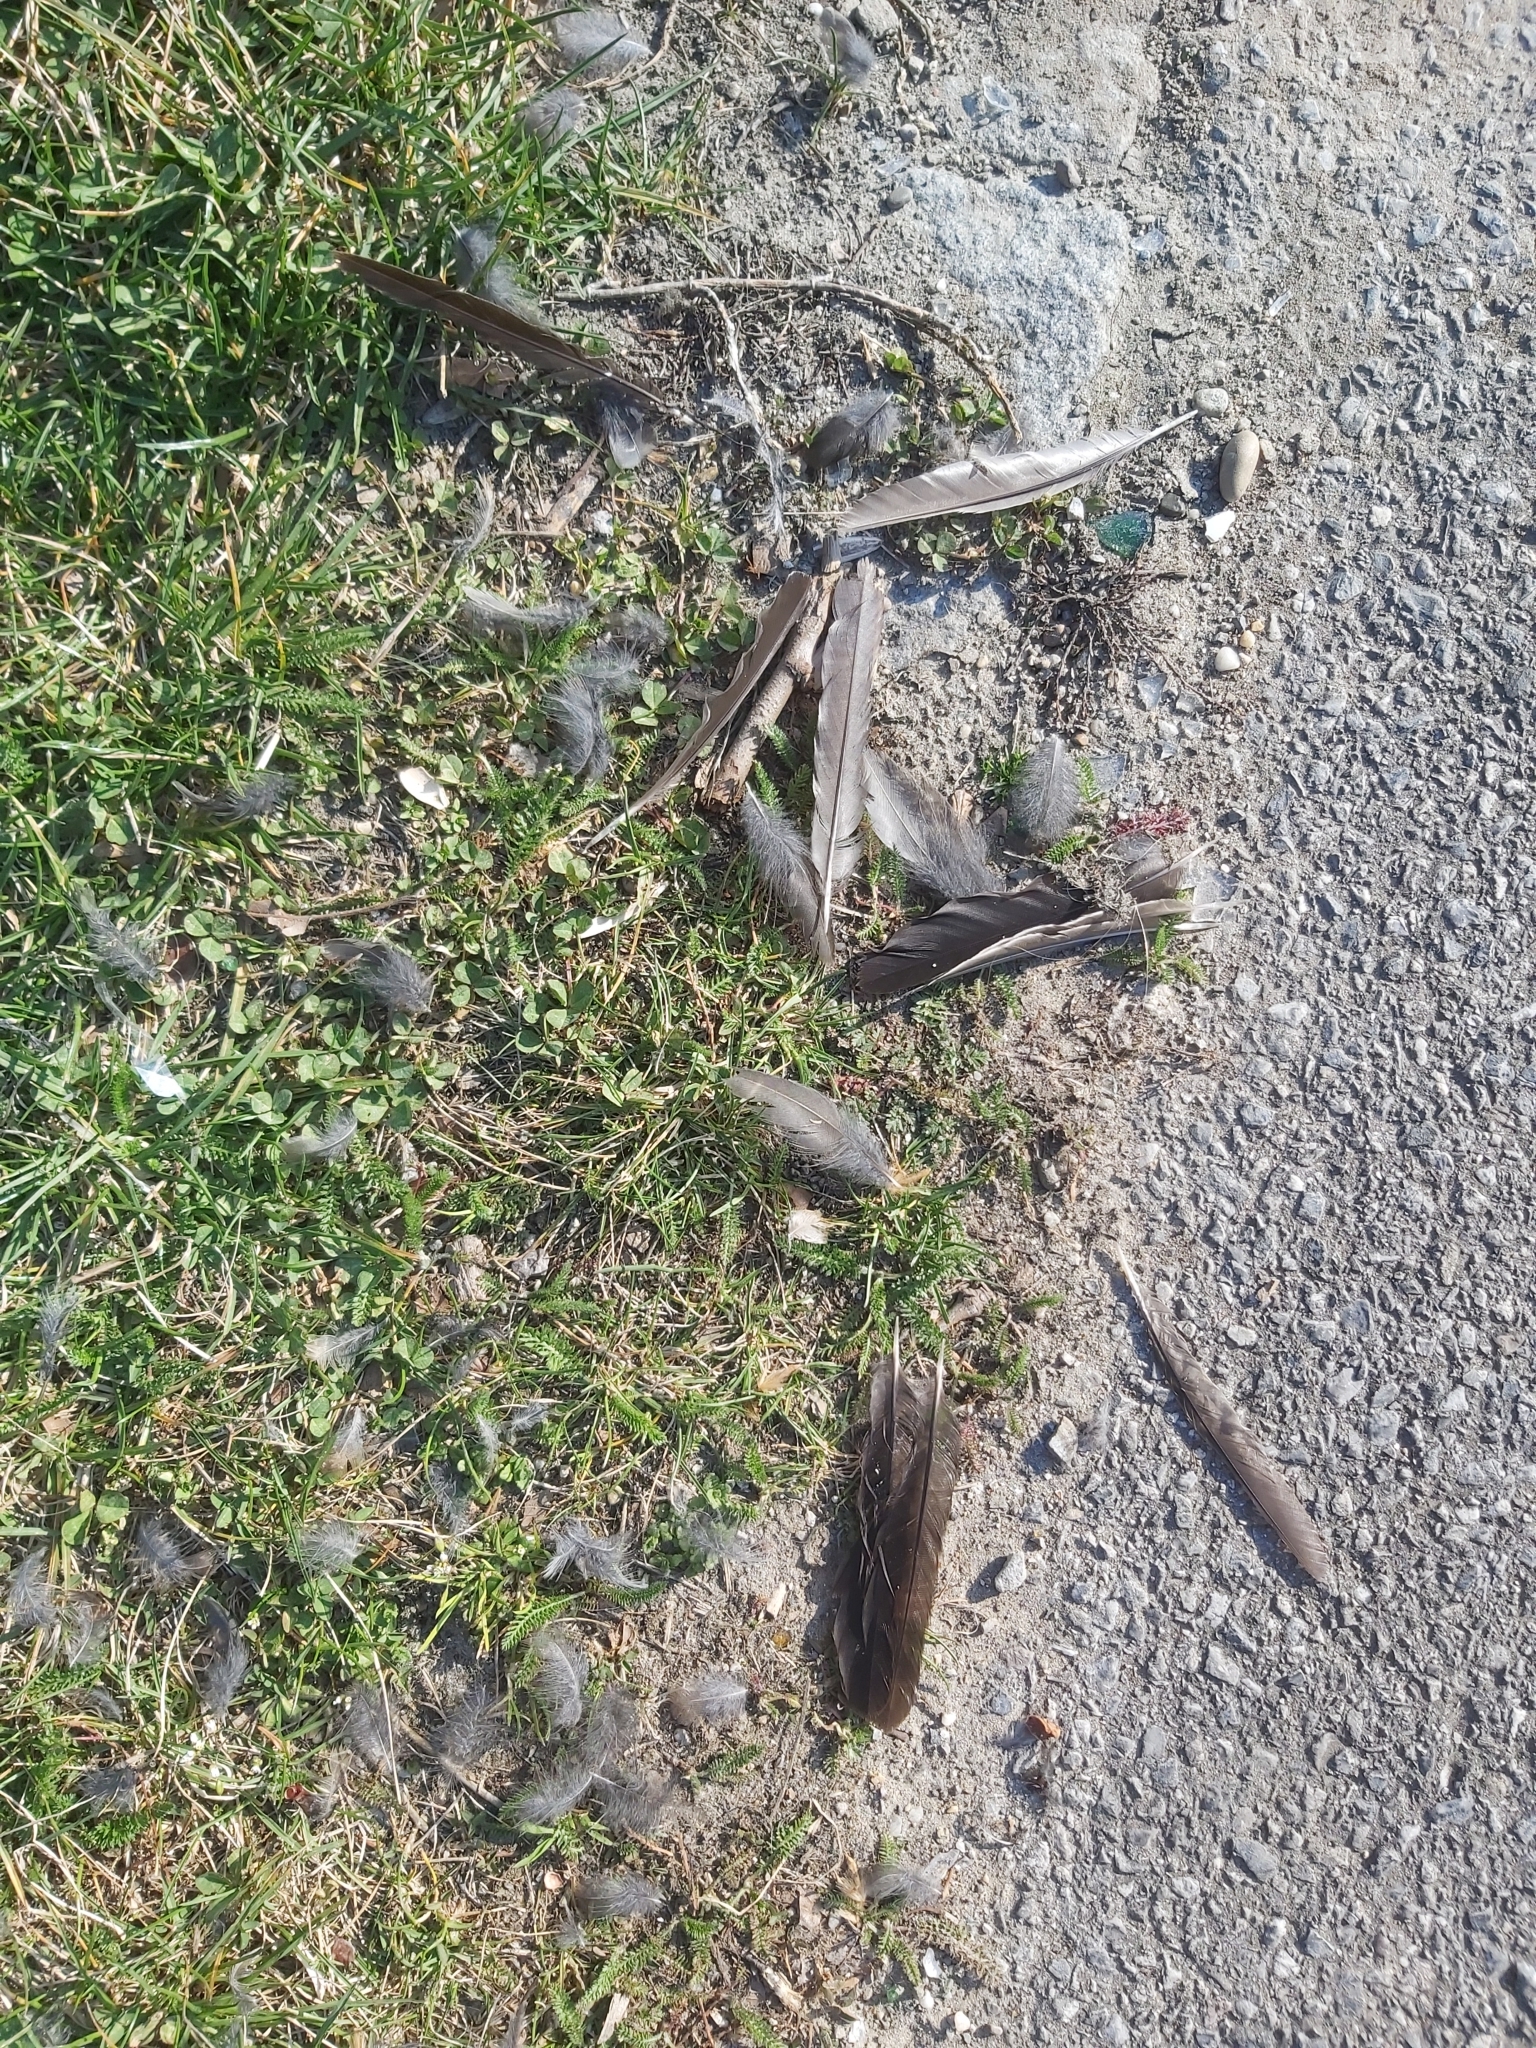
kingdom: Animalia
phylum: Chordata
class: Aves
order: Passeriformes
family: Turdidae
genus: Turdus
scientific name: Turdus merula
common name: Common blackbird
